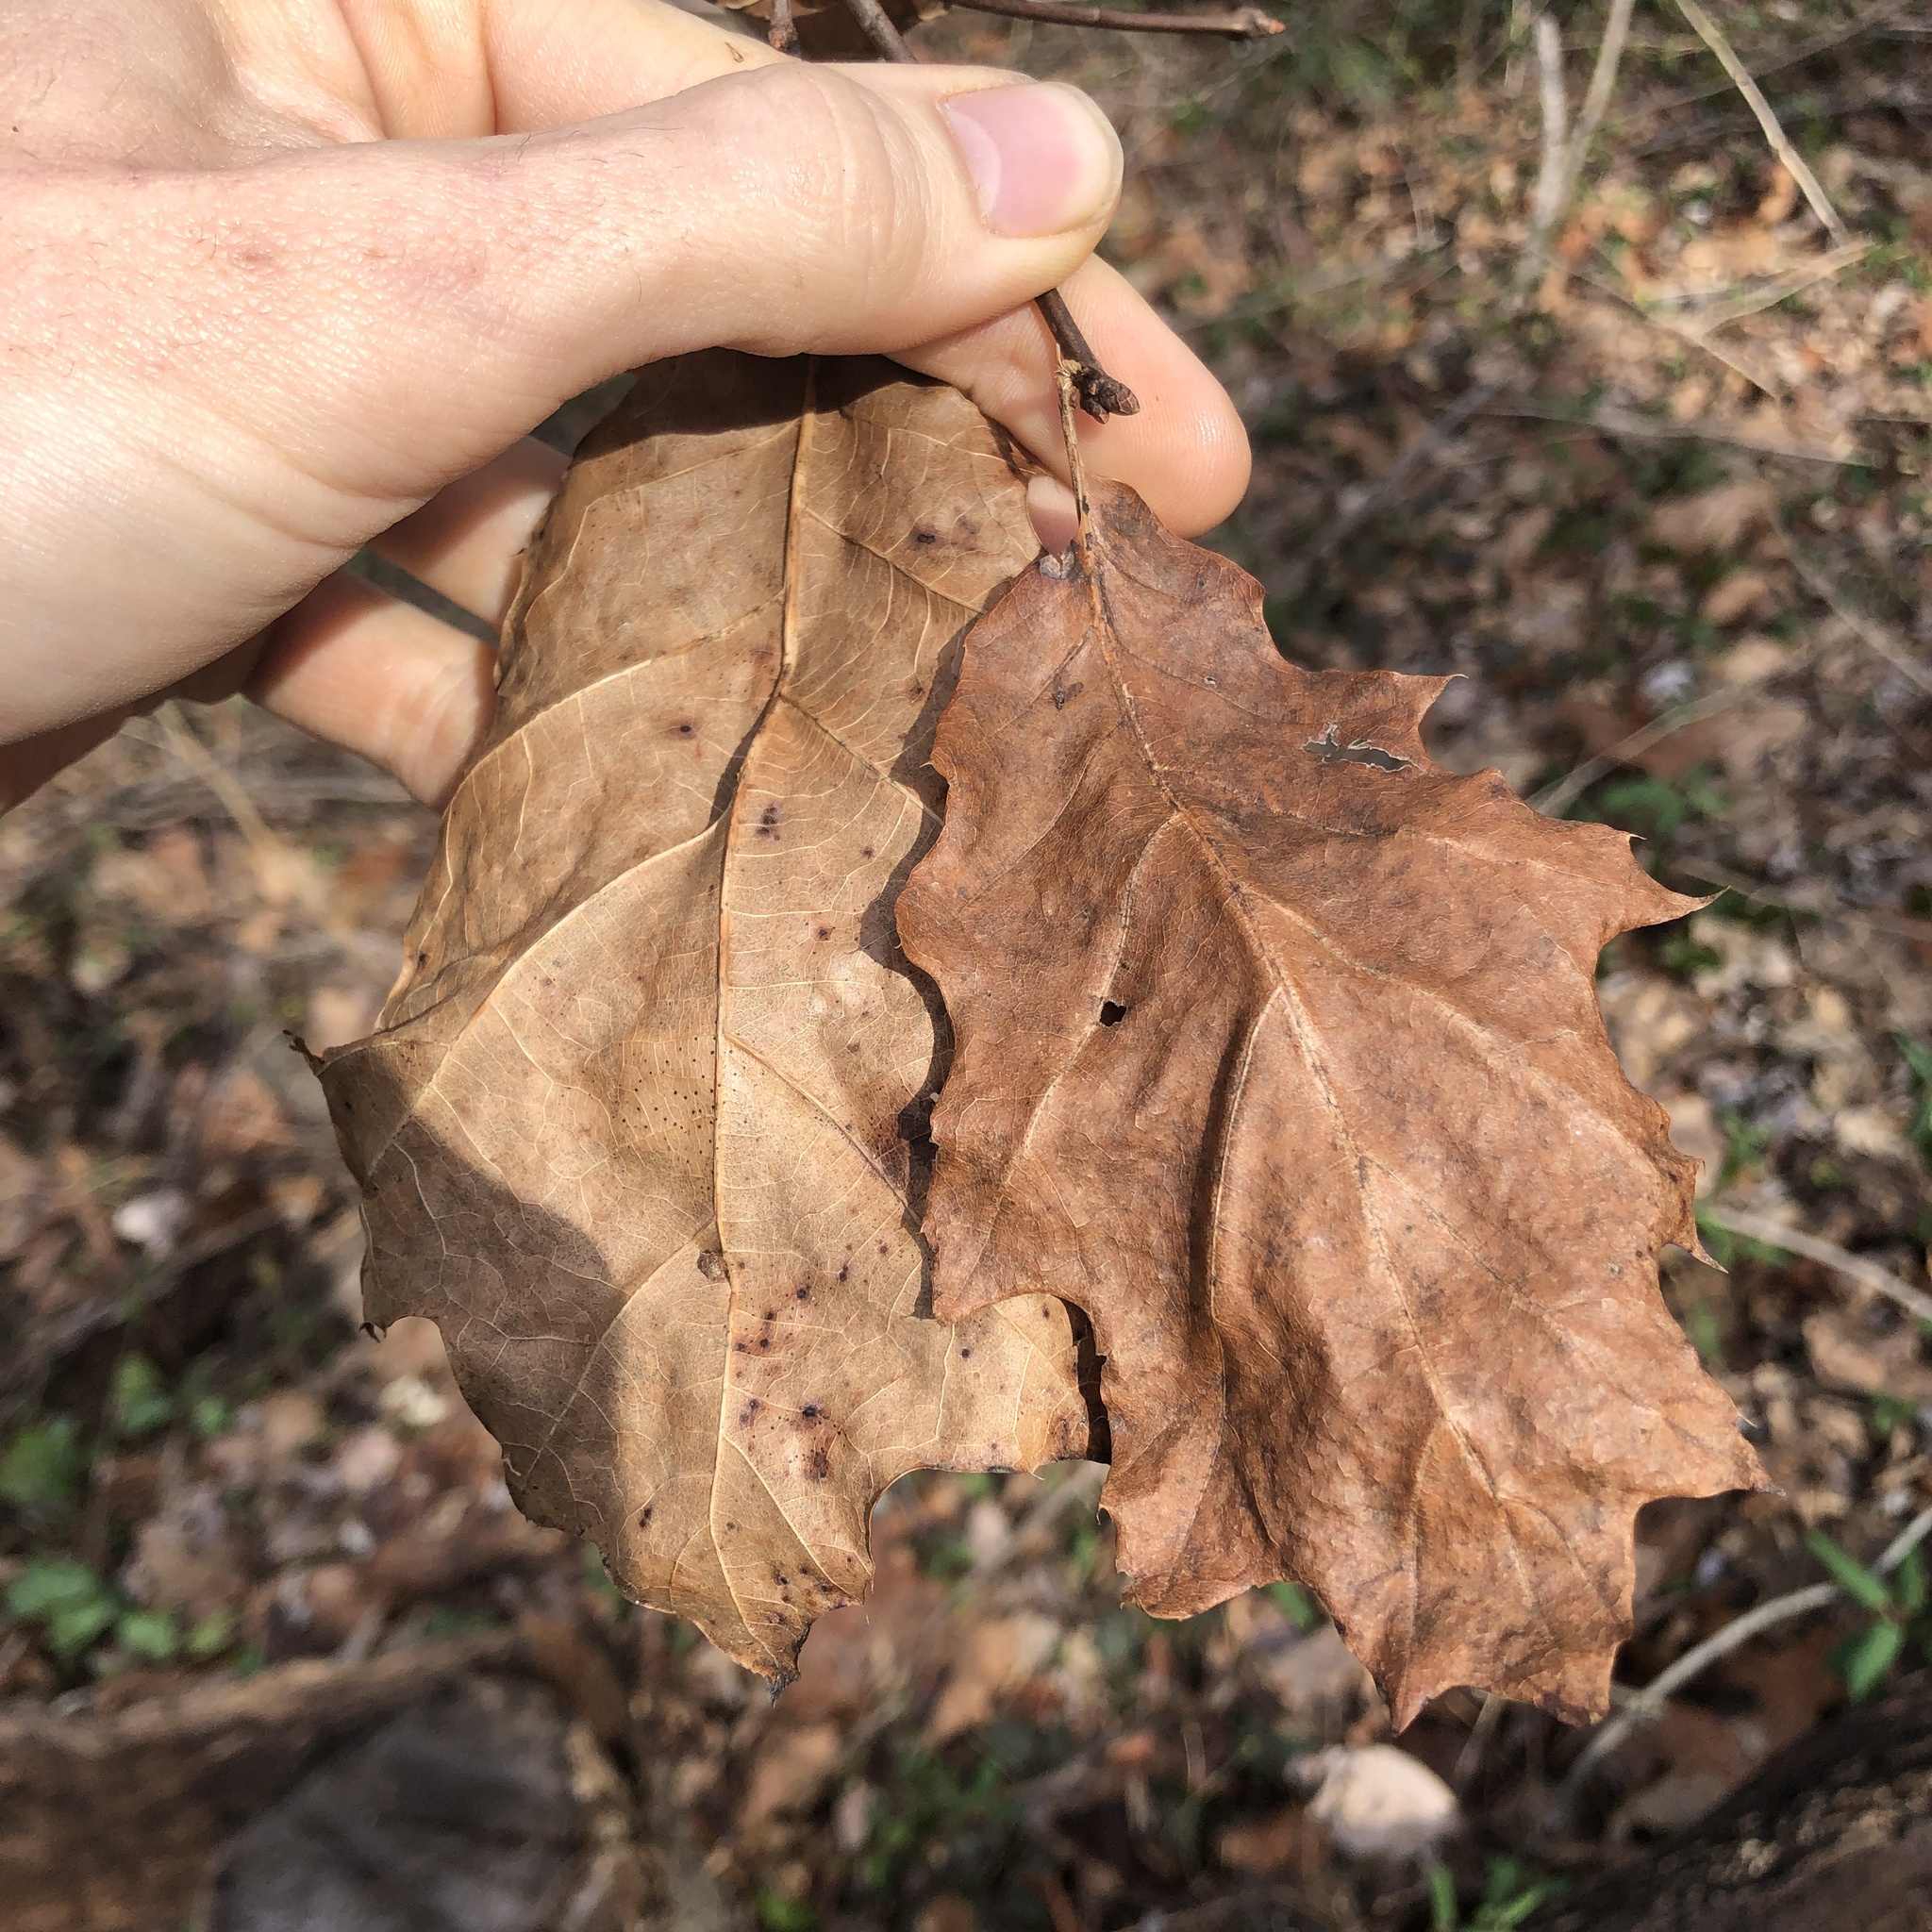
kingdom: Plantae
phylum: Tracheophyta
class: Magnoliopsida
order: Fagales
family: Fagaceae
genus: Quercus
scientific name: Quercus rubra
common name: Red oak
